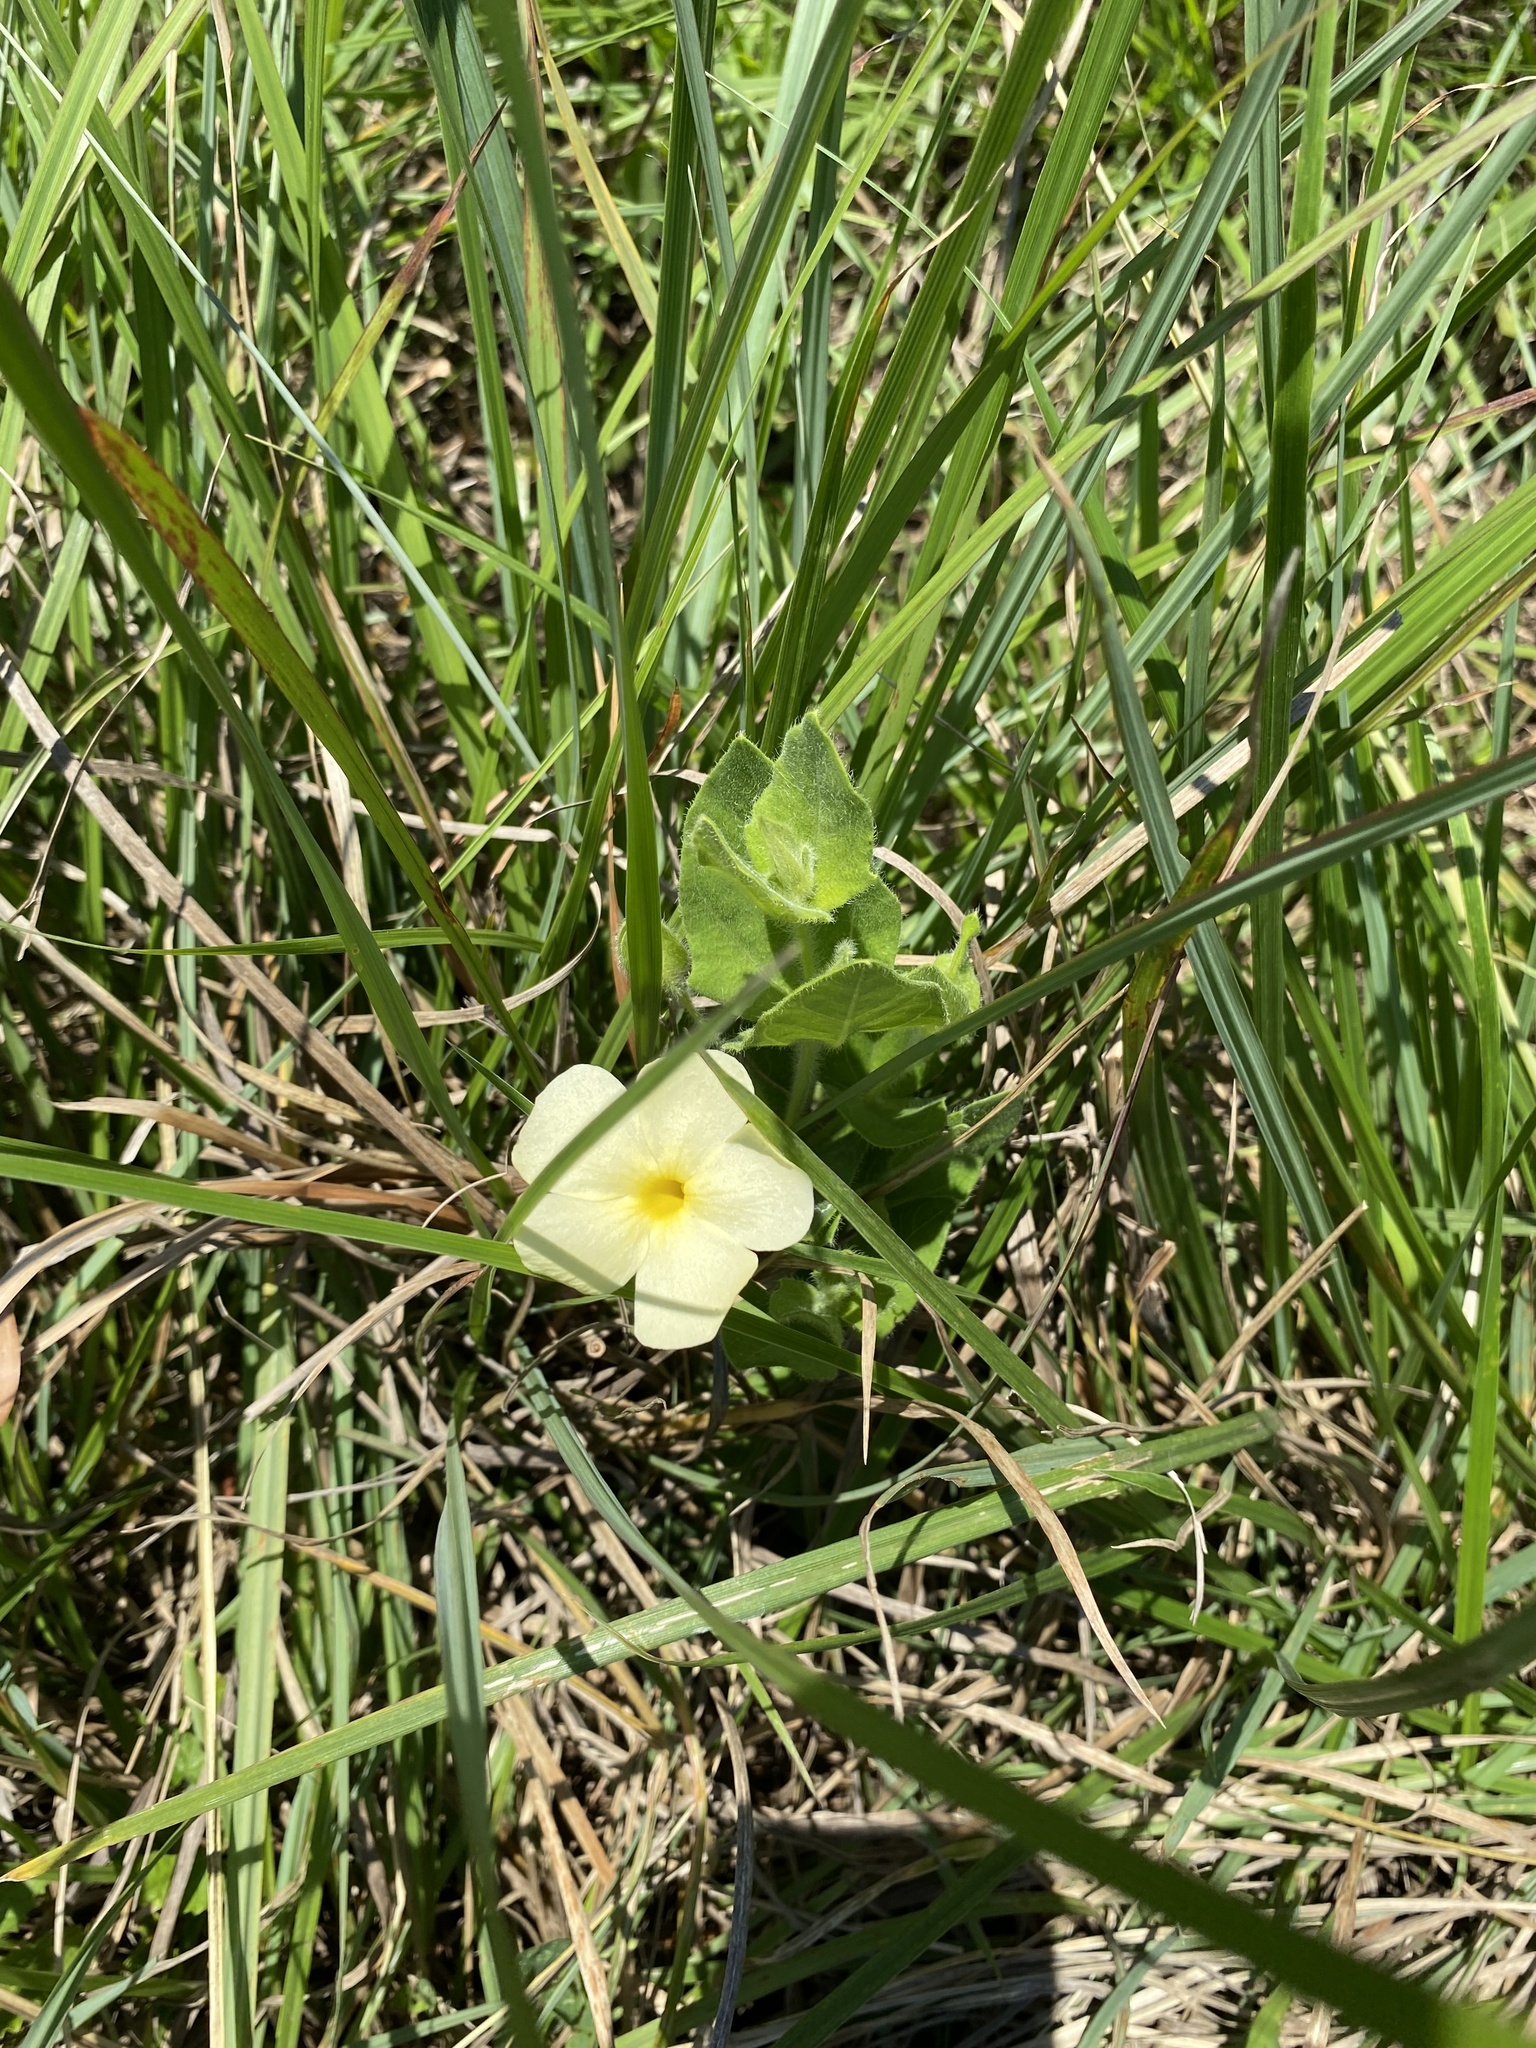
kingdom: Plantae
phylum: Tracheophyta
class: Magnoliopsida
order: Lamiales
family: Acanthaceae
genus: Thunbergia
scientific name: Thunbergia atriplicifolia
